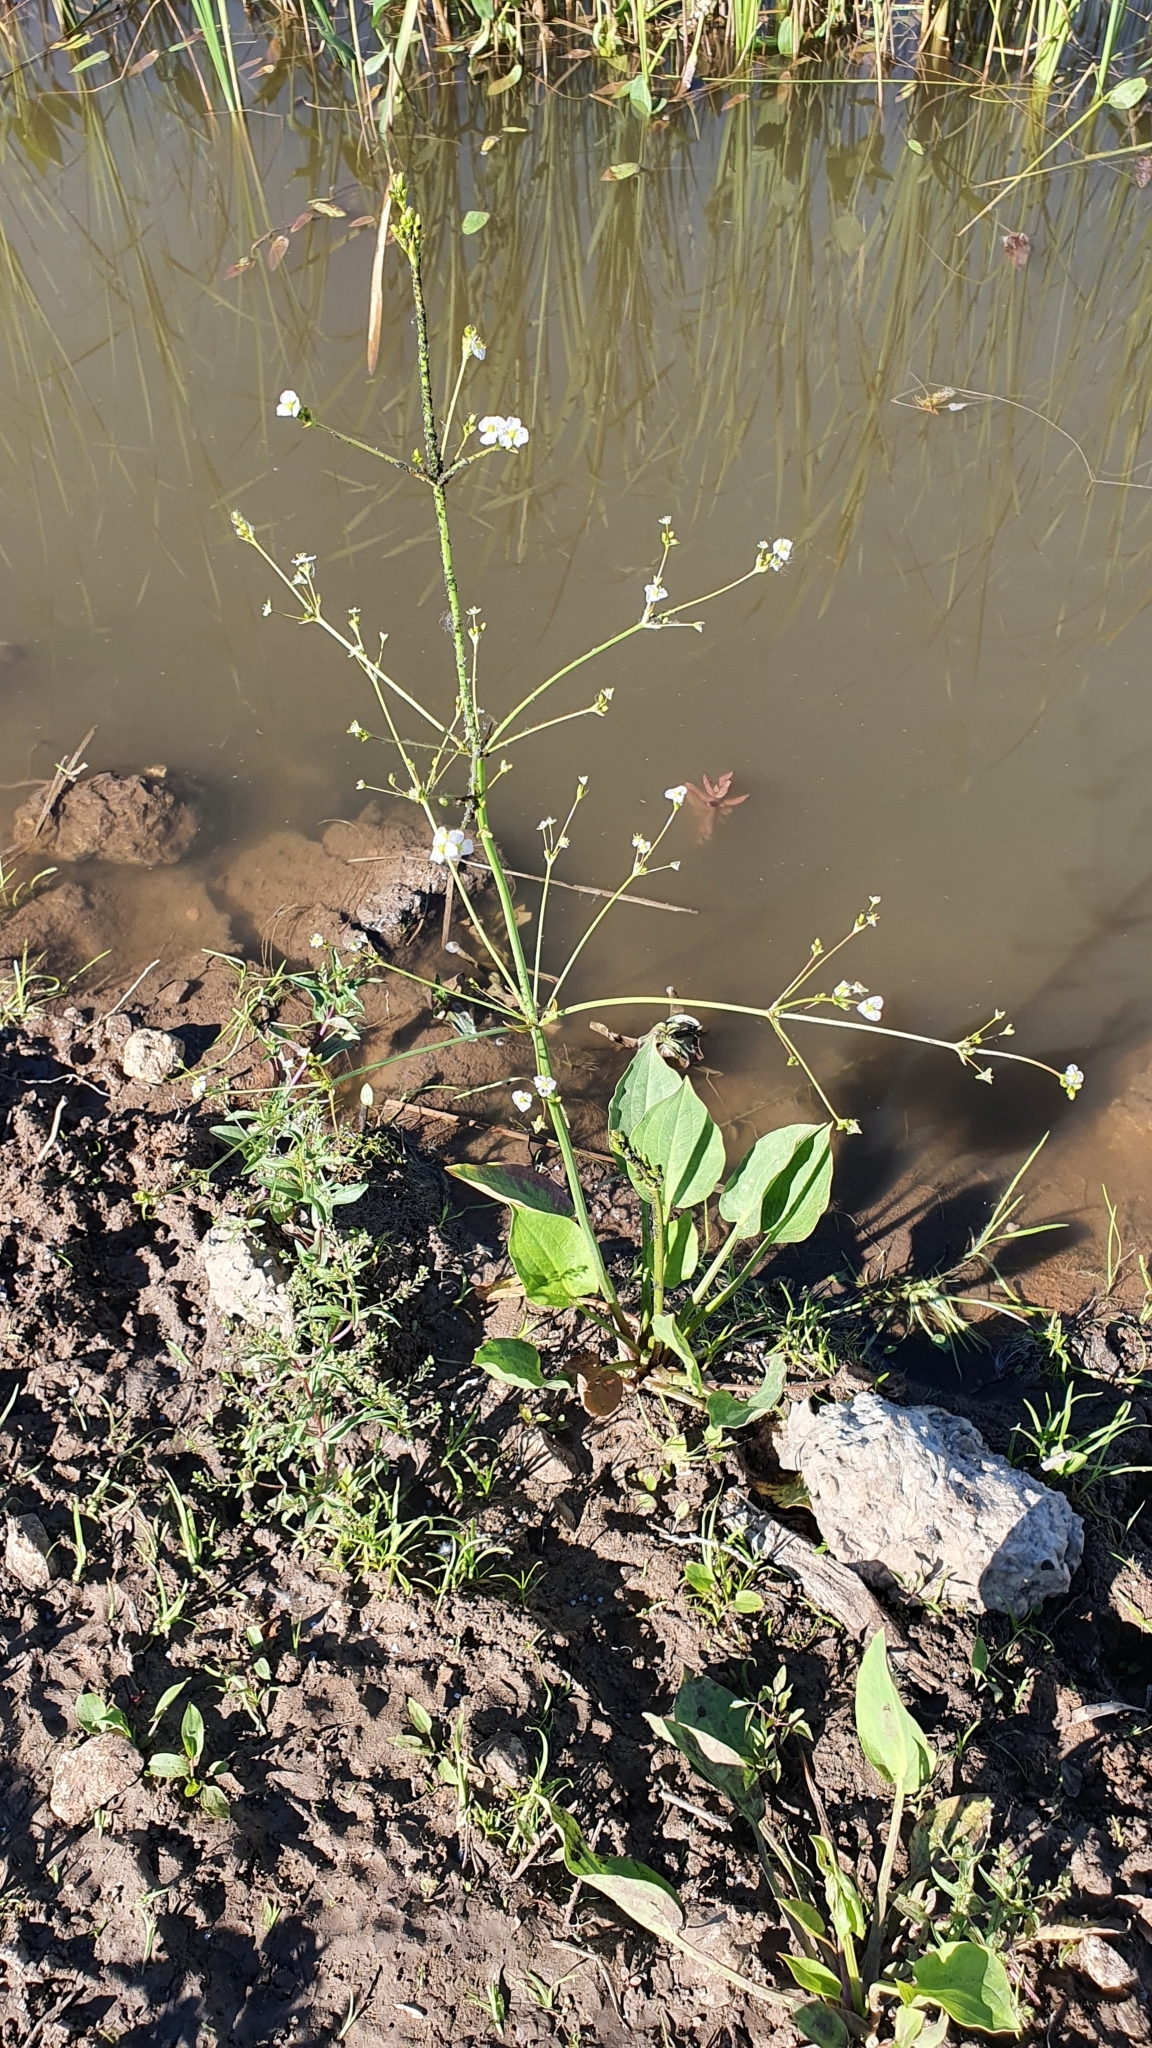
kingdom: Plantae
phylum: Tracheophyta
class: Liliopsida
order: Alismatales
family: Alismataceae
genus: Alisma
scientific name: Alisma plantago-aquatica
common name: Water-plantain
